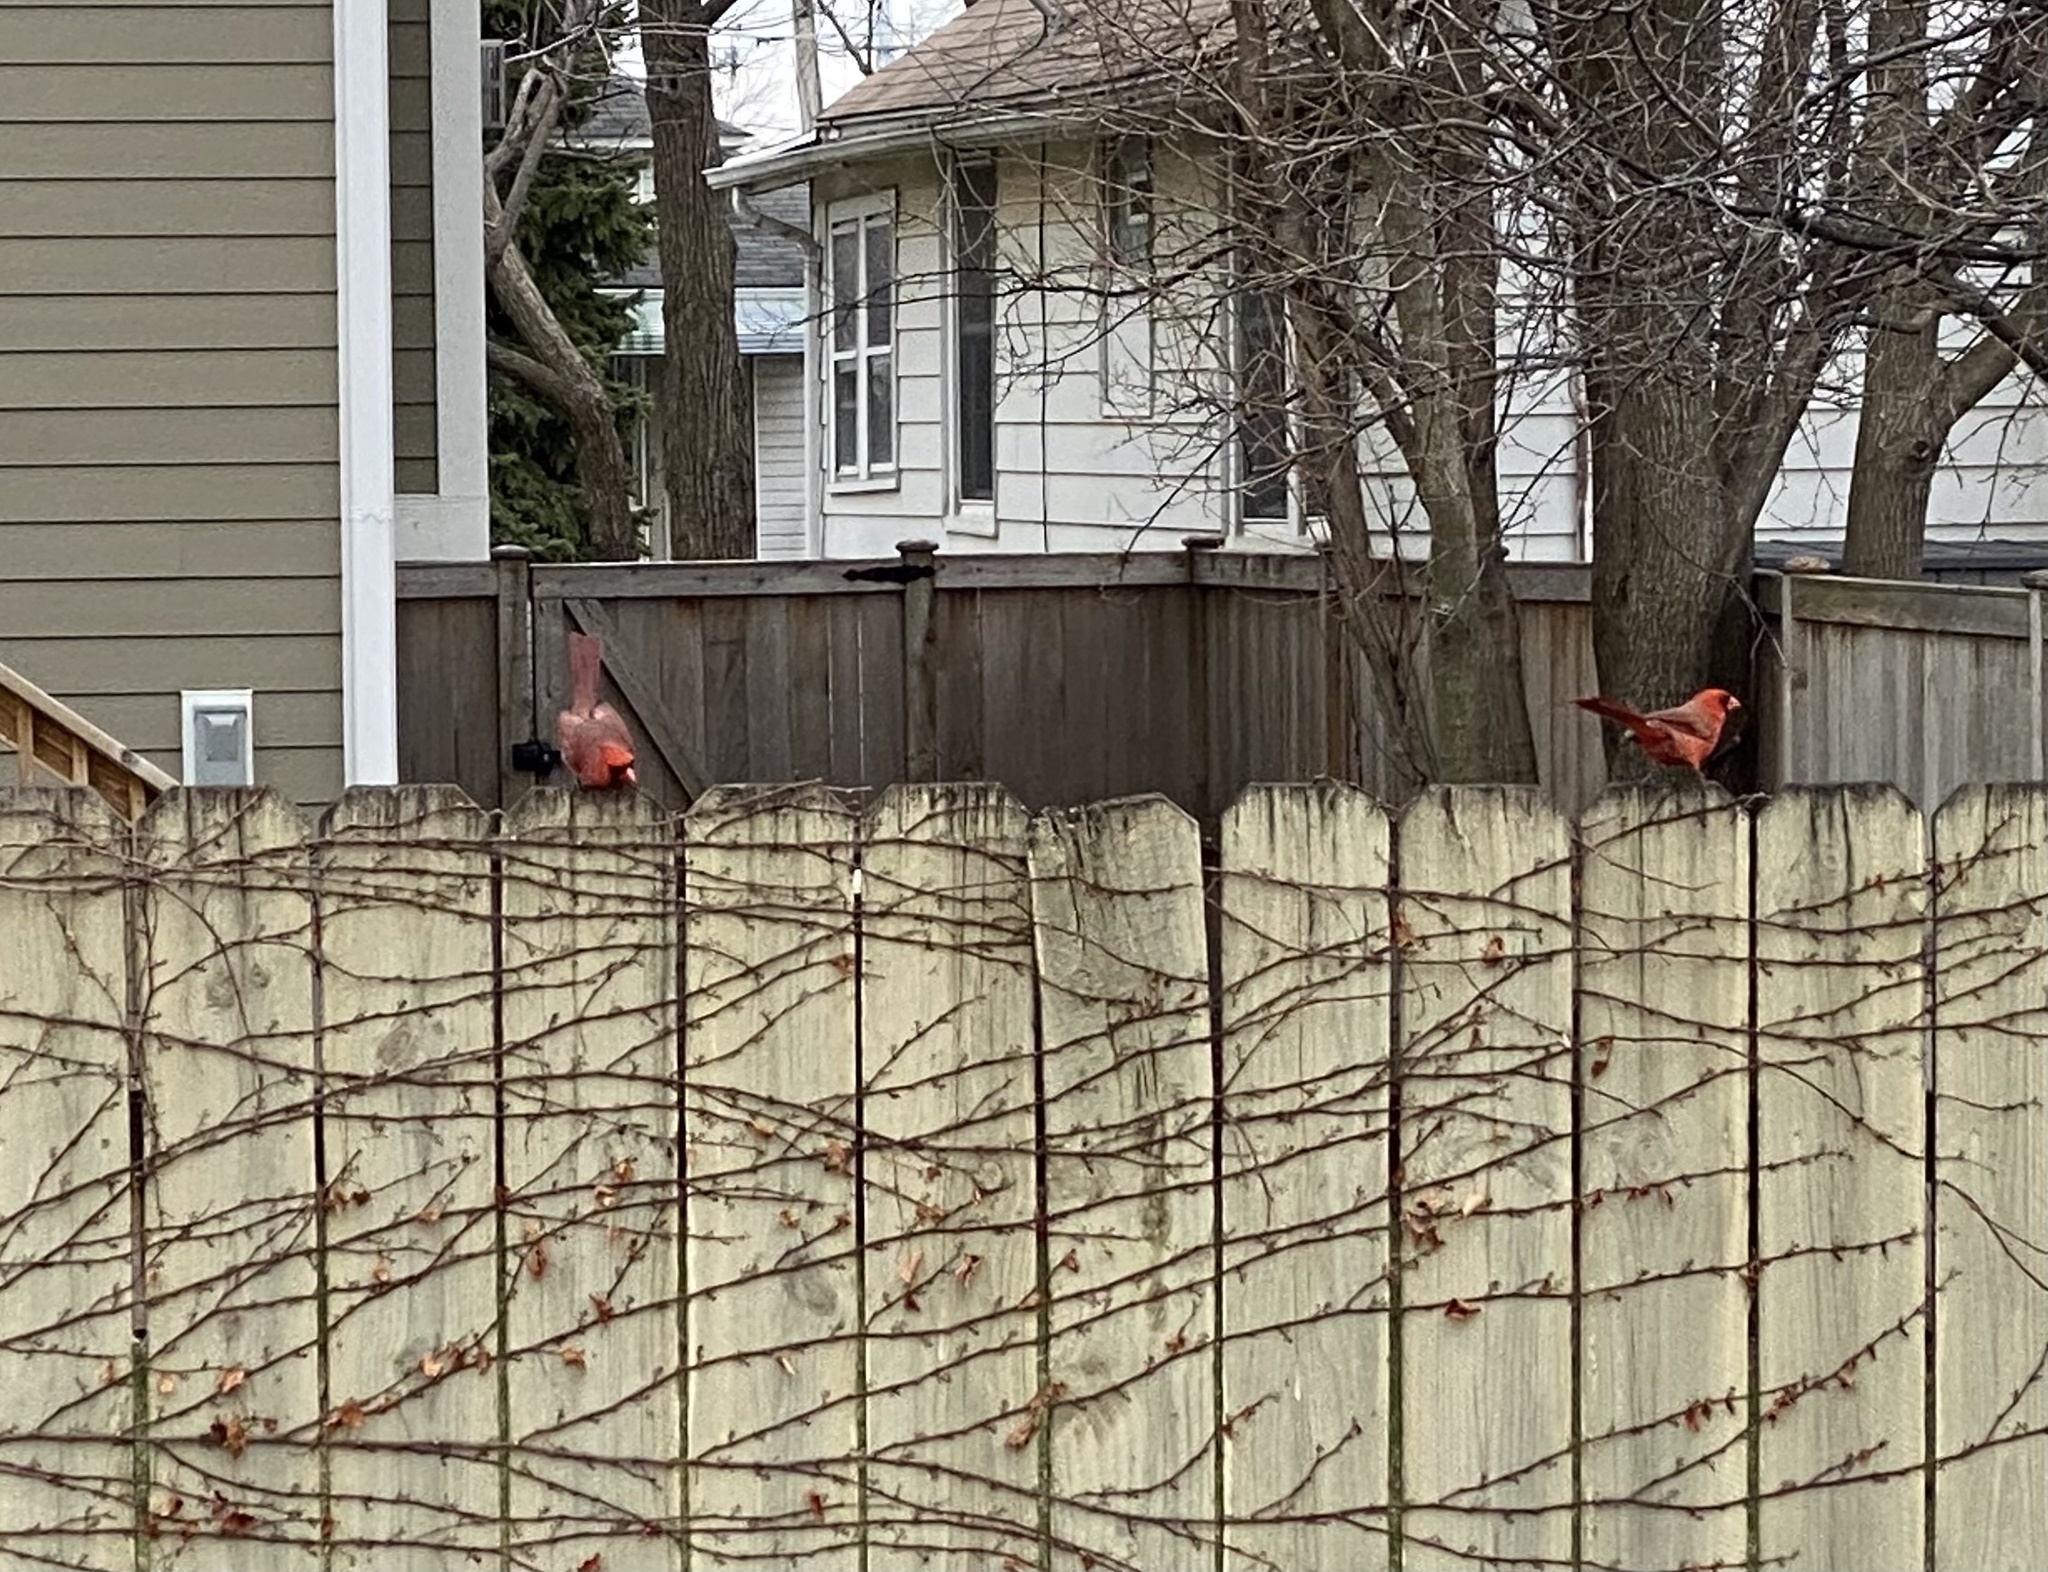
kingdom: Animalia
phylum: Chordata
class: Aves
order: Passeriformes
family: Cardinalidae
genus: Cardinalis
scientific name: Cardinalis cardinalis
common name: Northern cardinal
